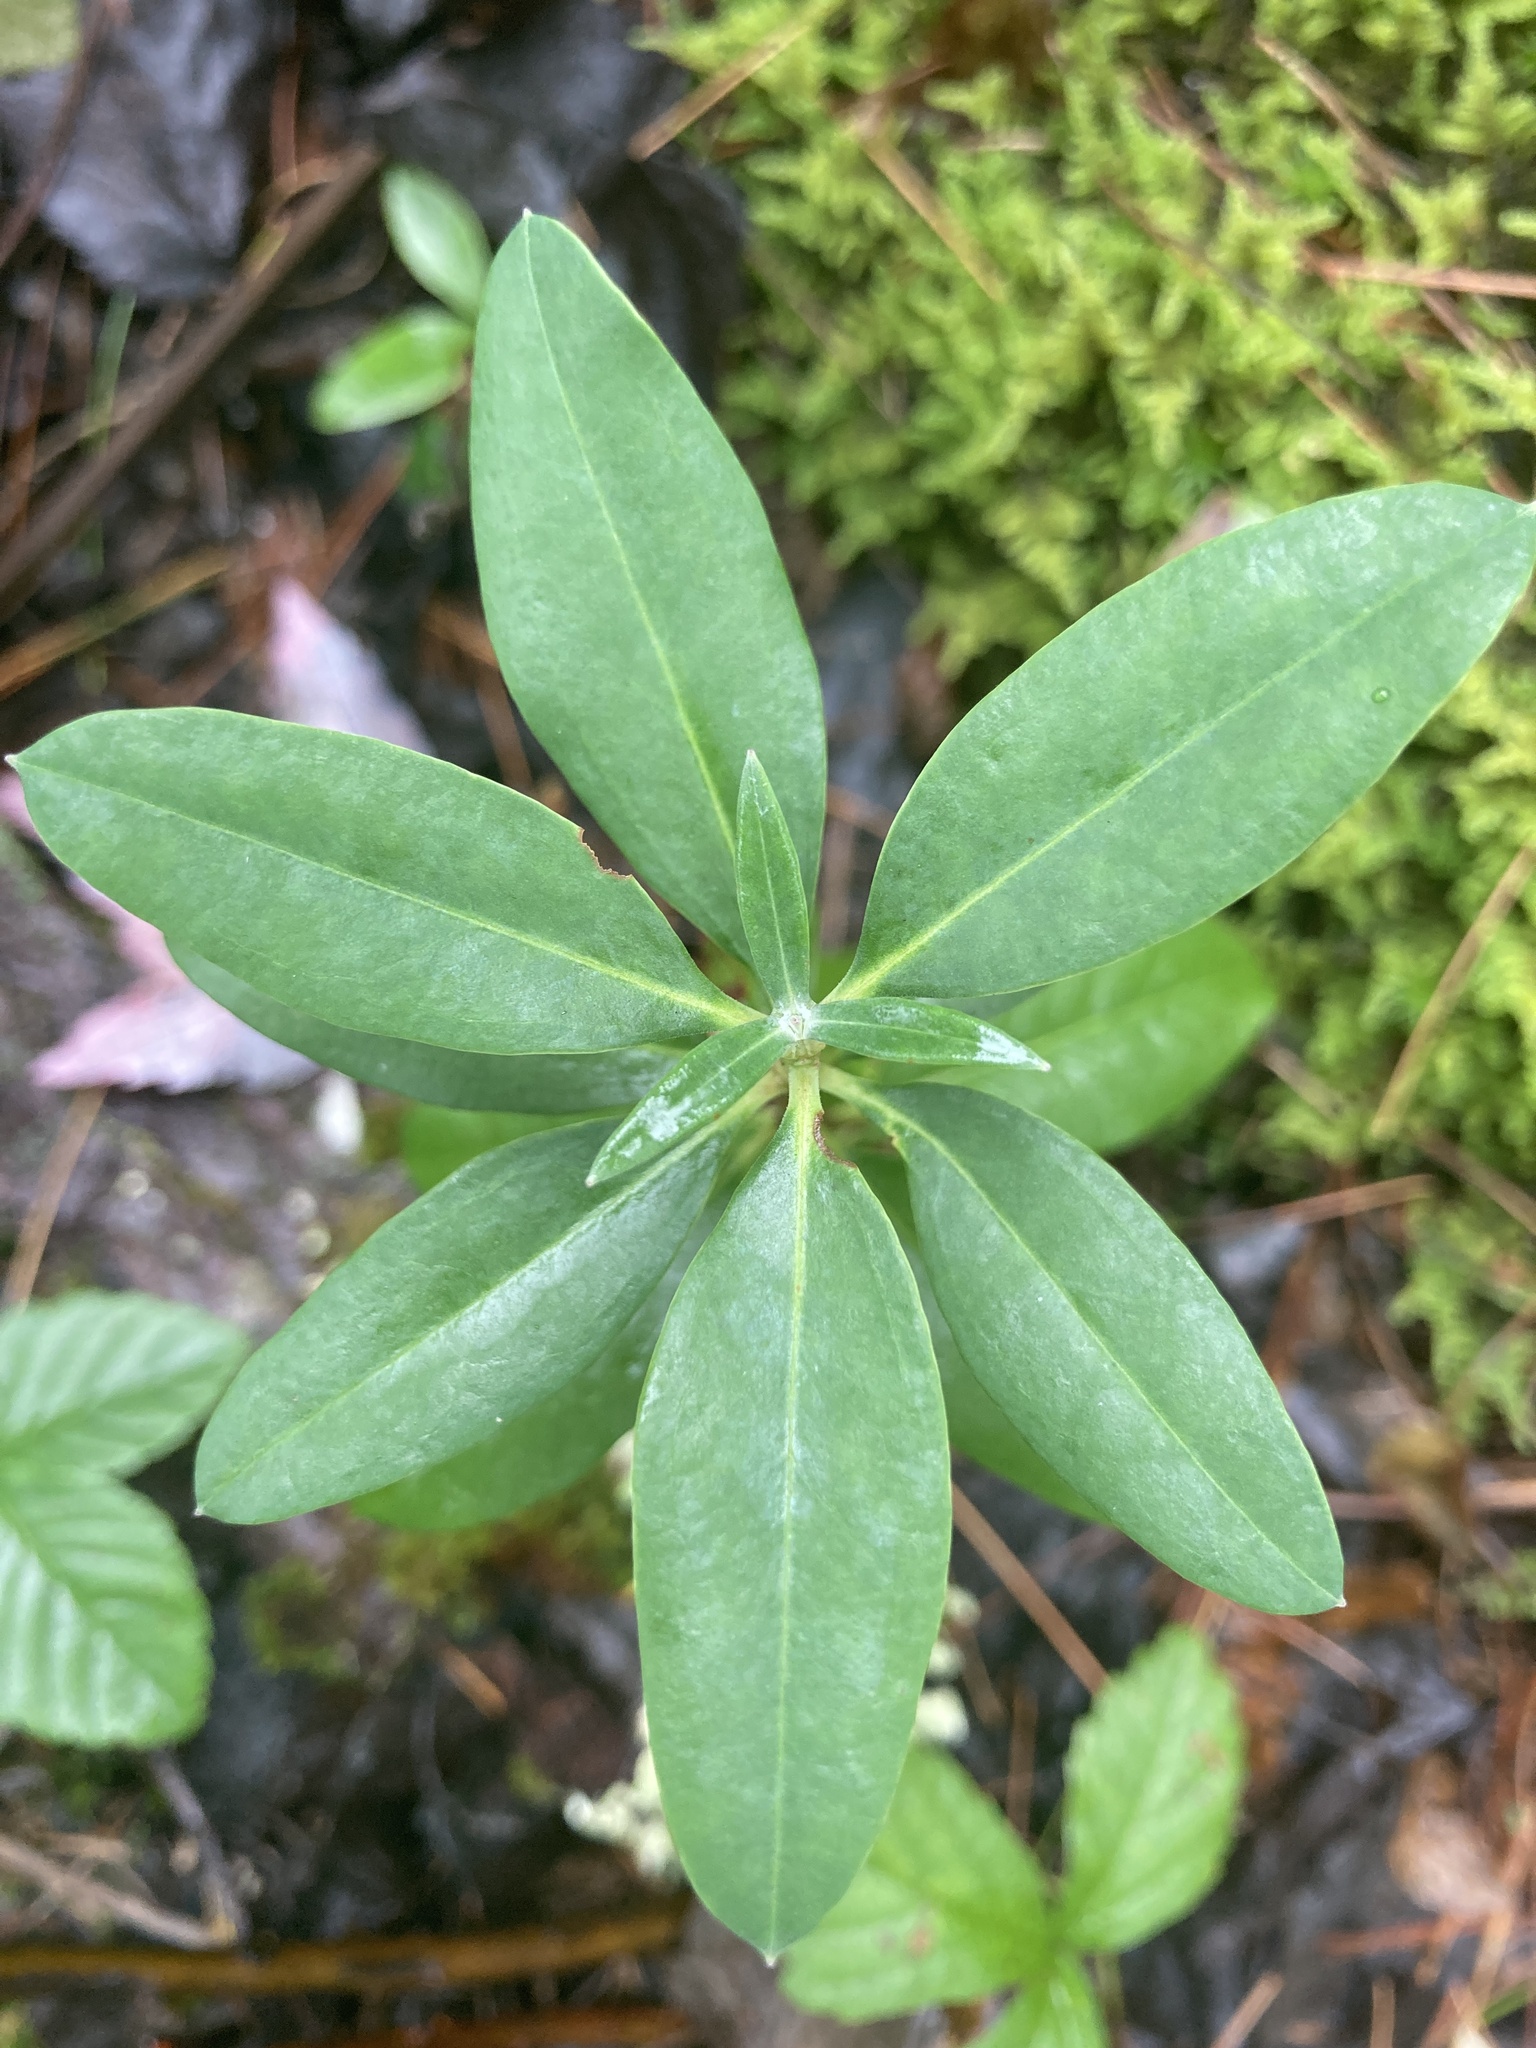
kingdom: Plantae
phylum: Tracheophyta
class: Magnoliopsida
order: Ericales
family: Ericaceae
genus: Kalmia
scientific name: Kalmia angustifolia
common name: Sheep-laurel
